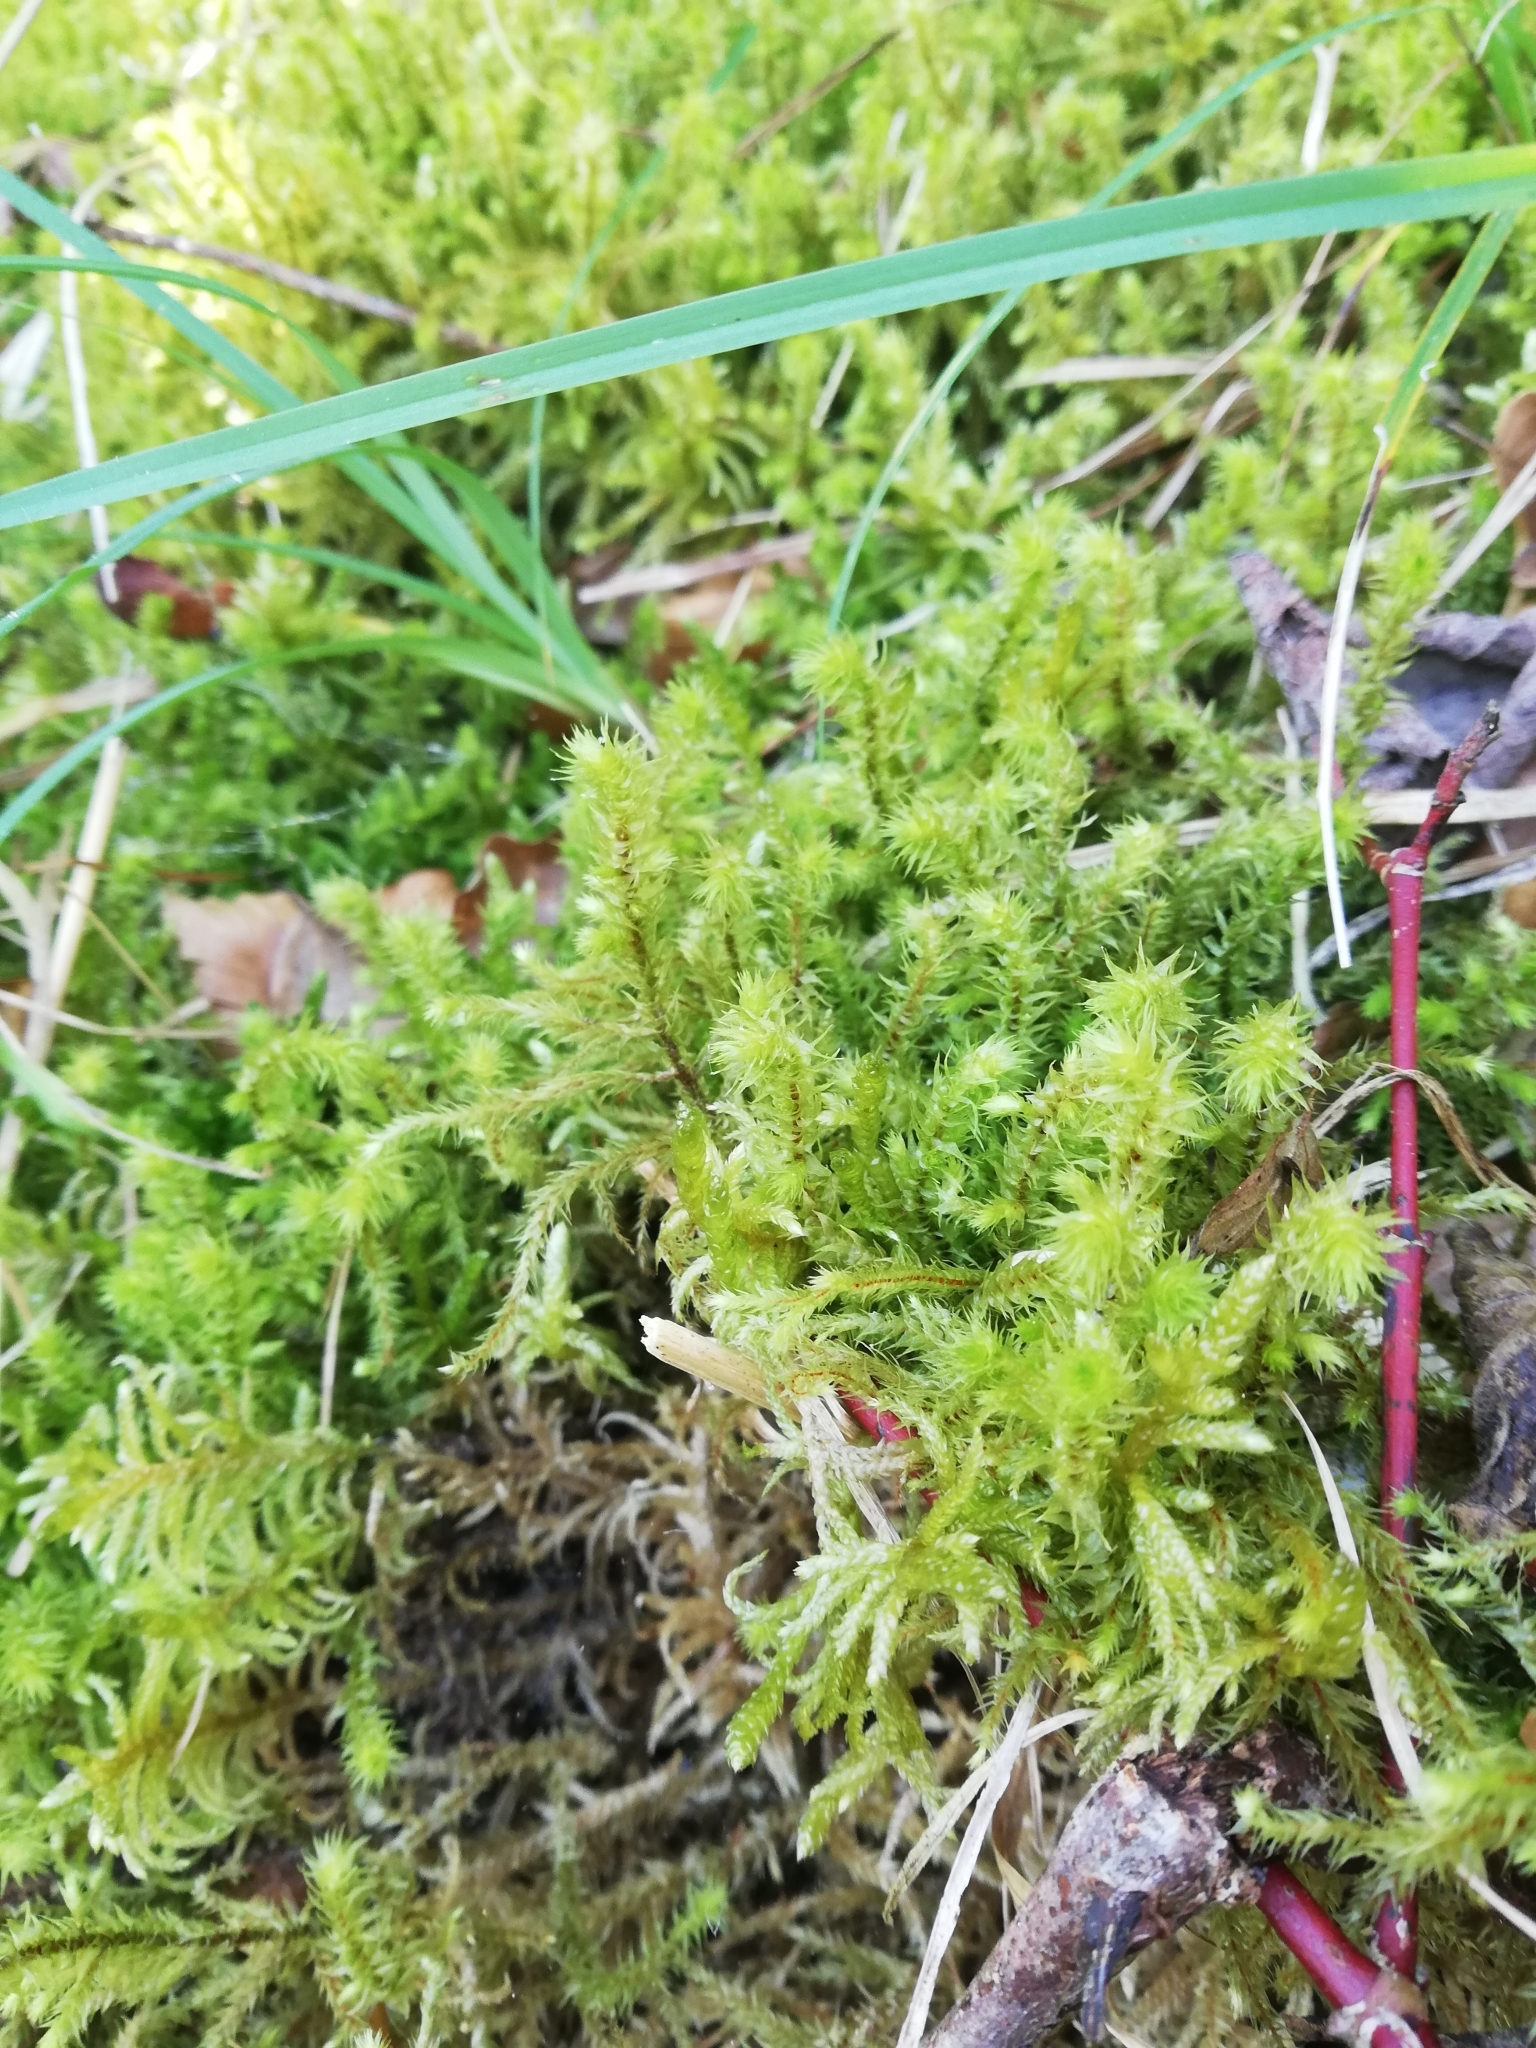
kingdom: Plantae
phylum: Bryophyta
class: Bryopsida
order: Hypnales
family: Hylocomiaceae
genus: Hylocomiadelphus
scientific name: Hylocomiadelphus triquetrus
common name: Rough goose neck moss
